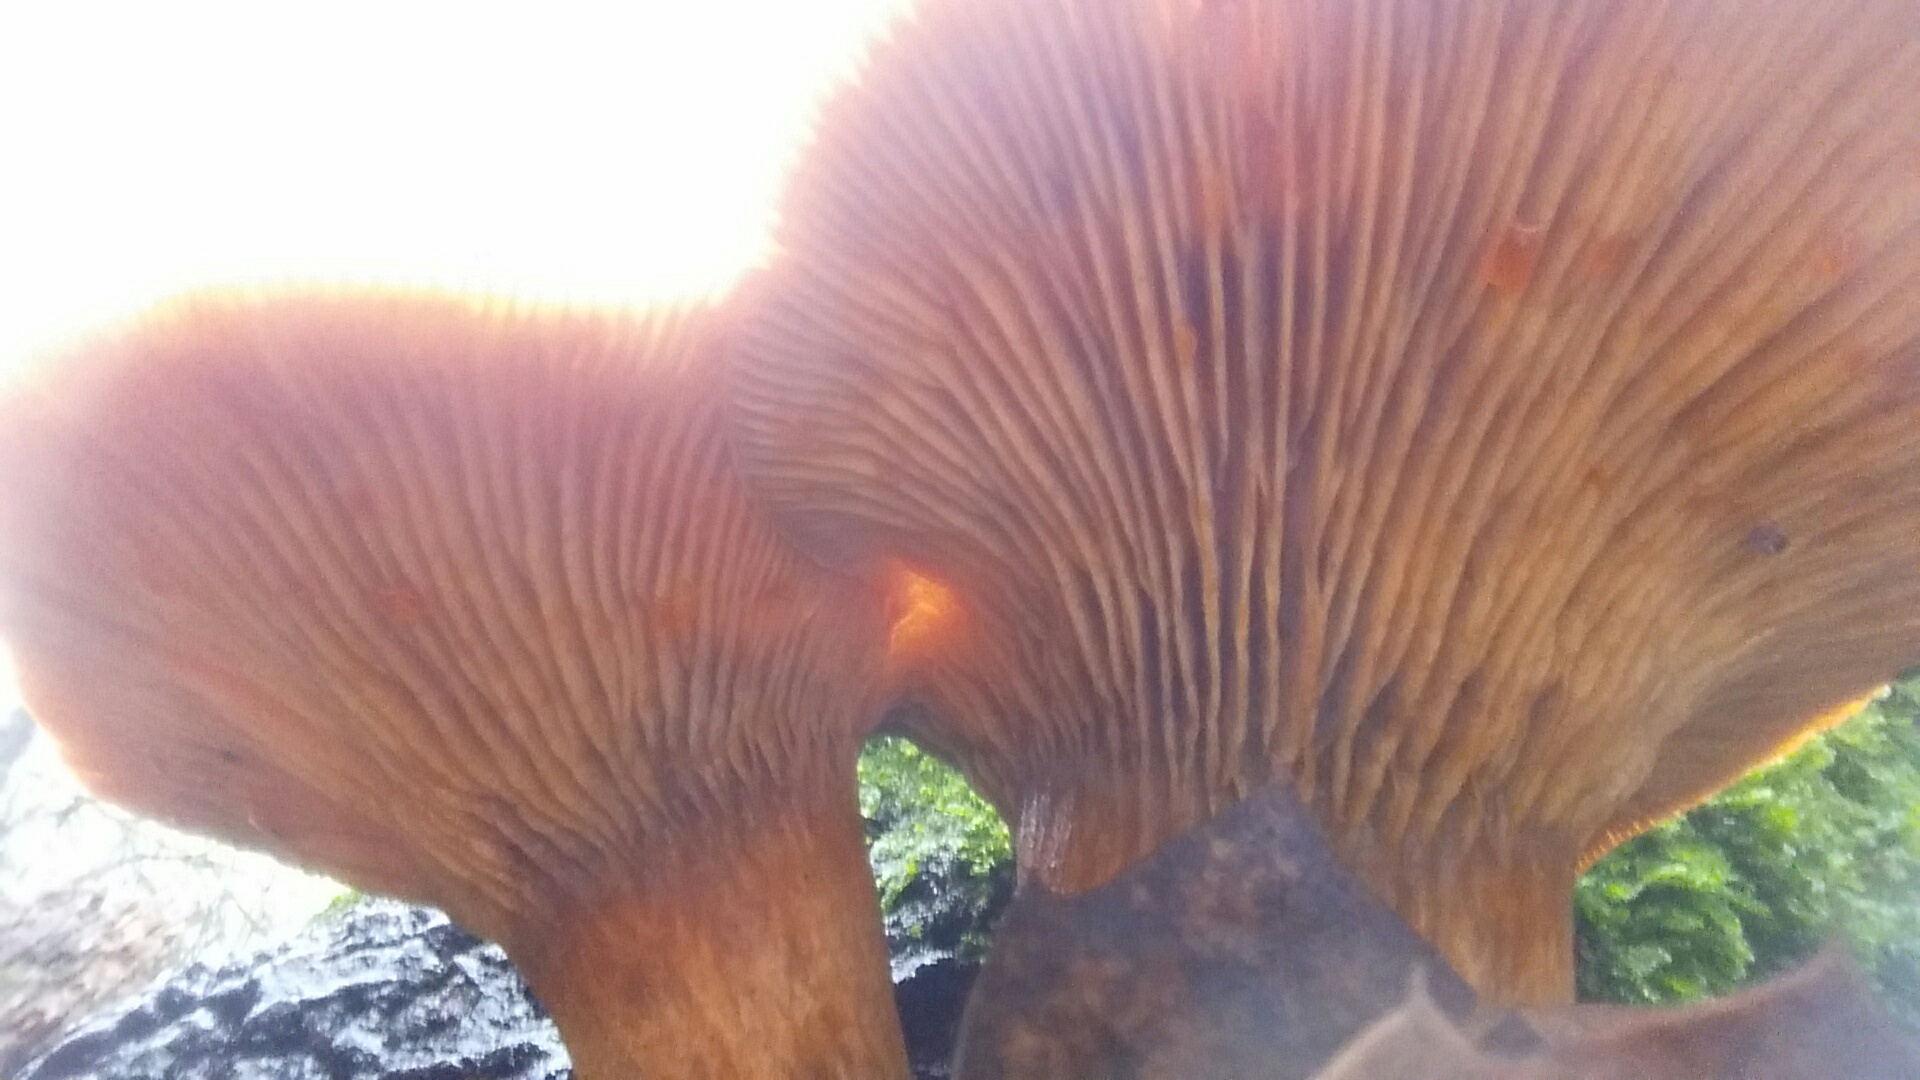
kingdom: Fungi
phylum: Basidiomycota
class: Agaricomycetes
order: Agaricales
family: Omphalotaceae
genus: Omphalotus
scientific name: Omphalotus olivascens
